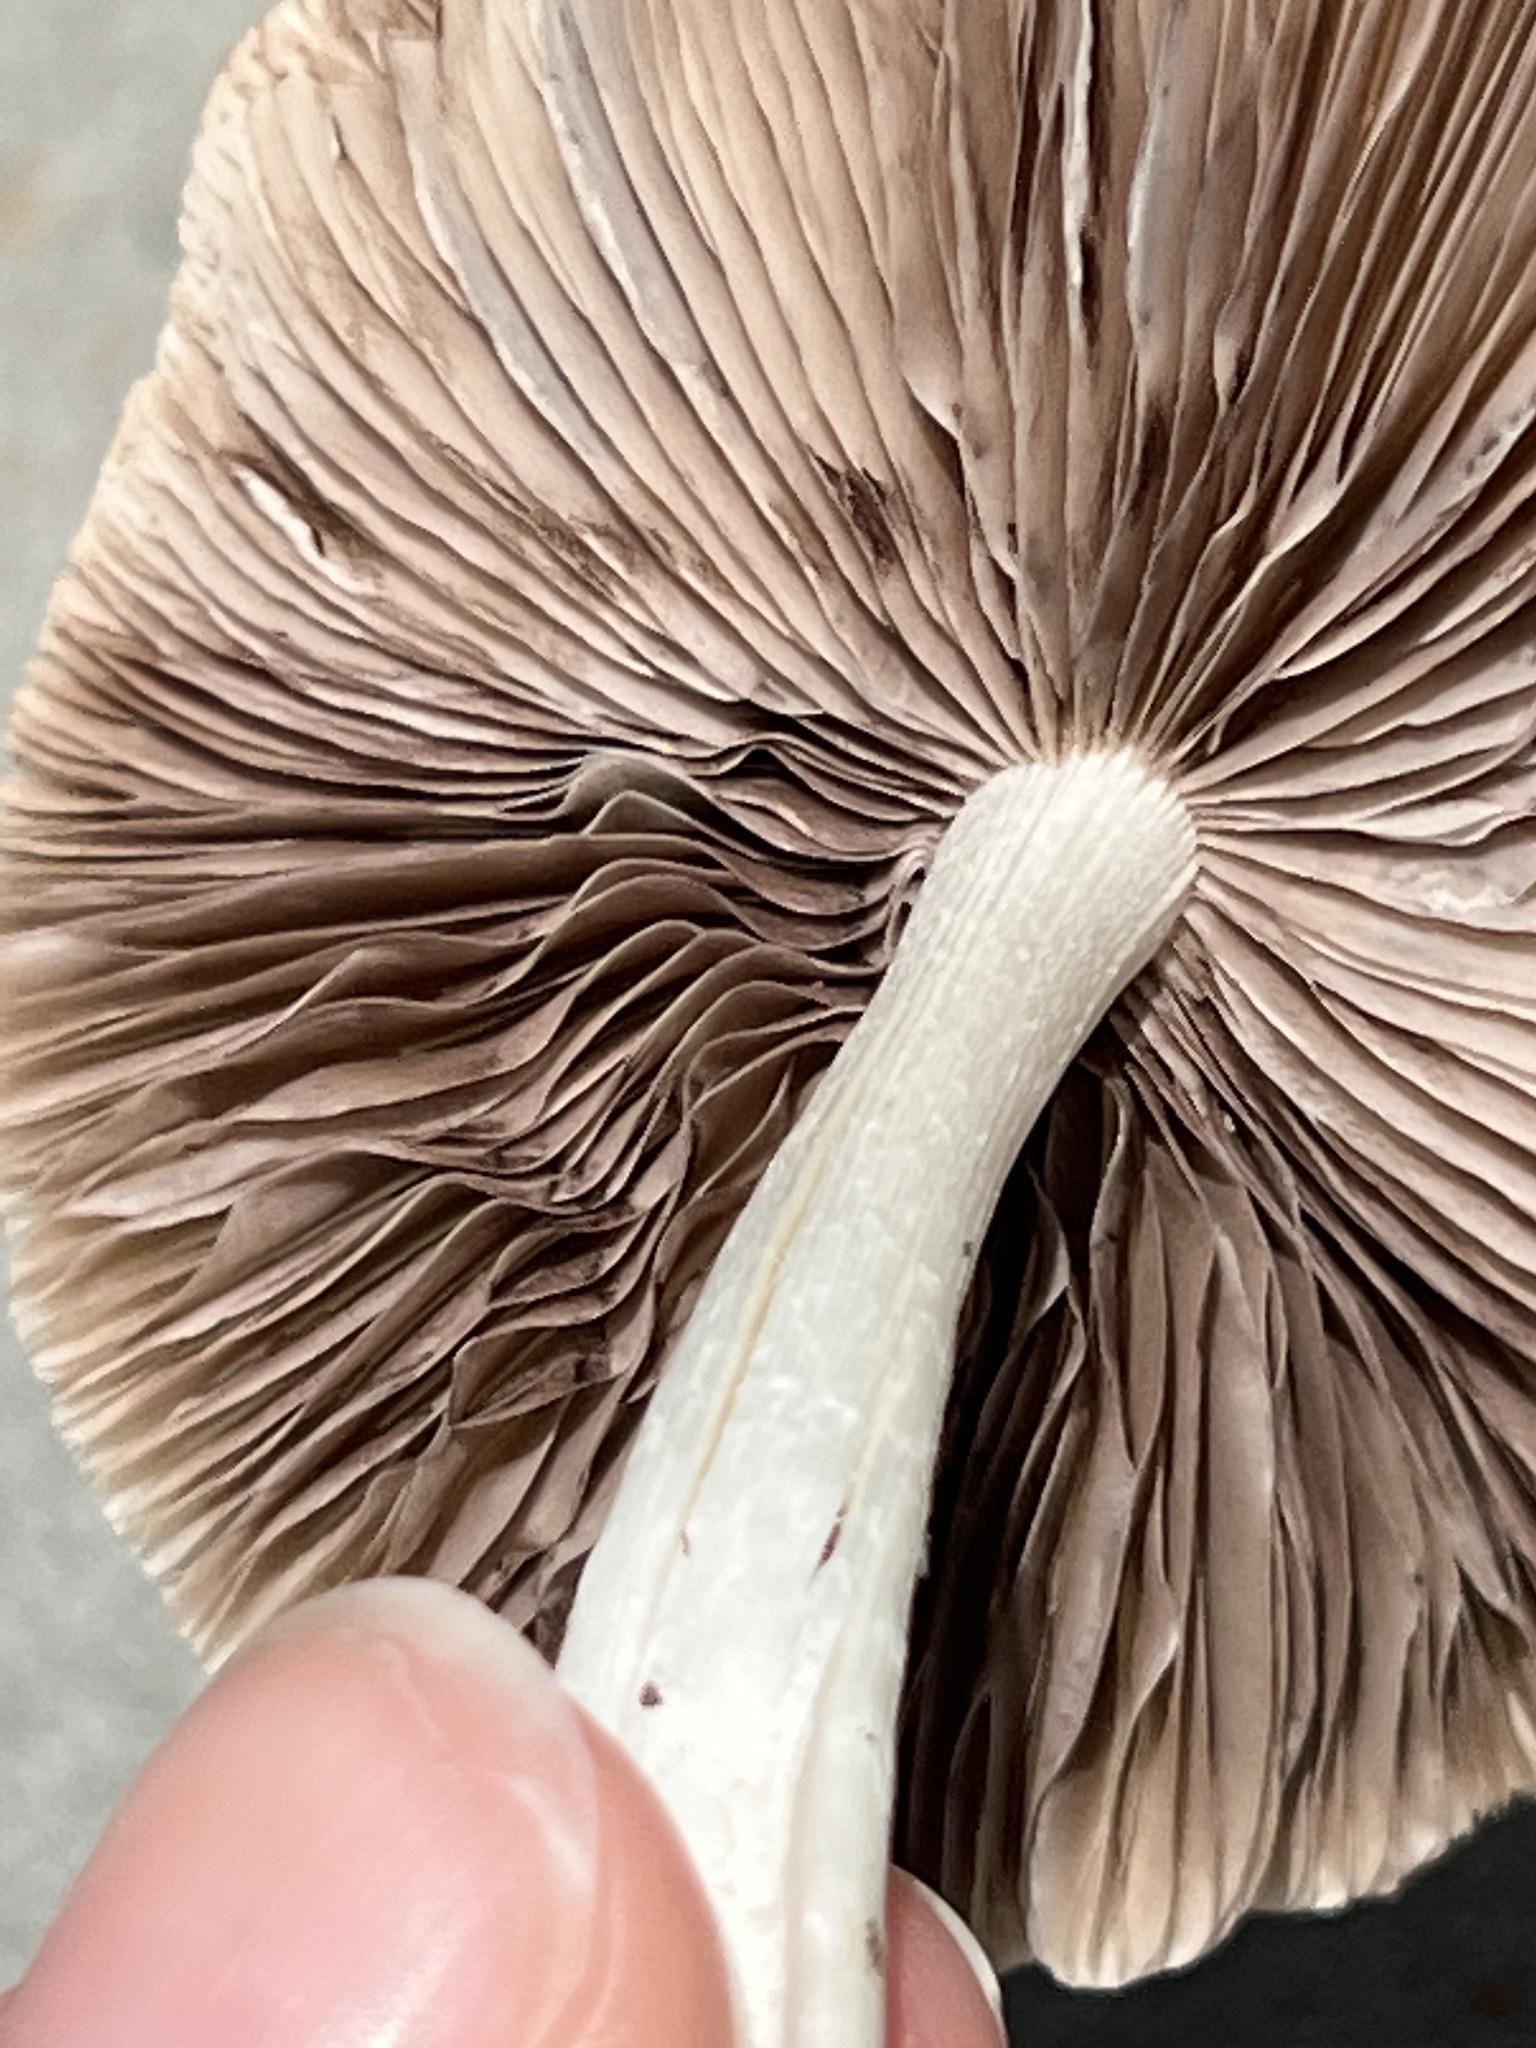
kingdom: Fungi
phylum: Basidiomycota
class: Agaricomycetes
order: Agaricales
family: Psathyrellaceae
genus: Candolleomyces
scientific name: Candolleomyces candolleanus
